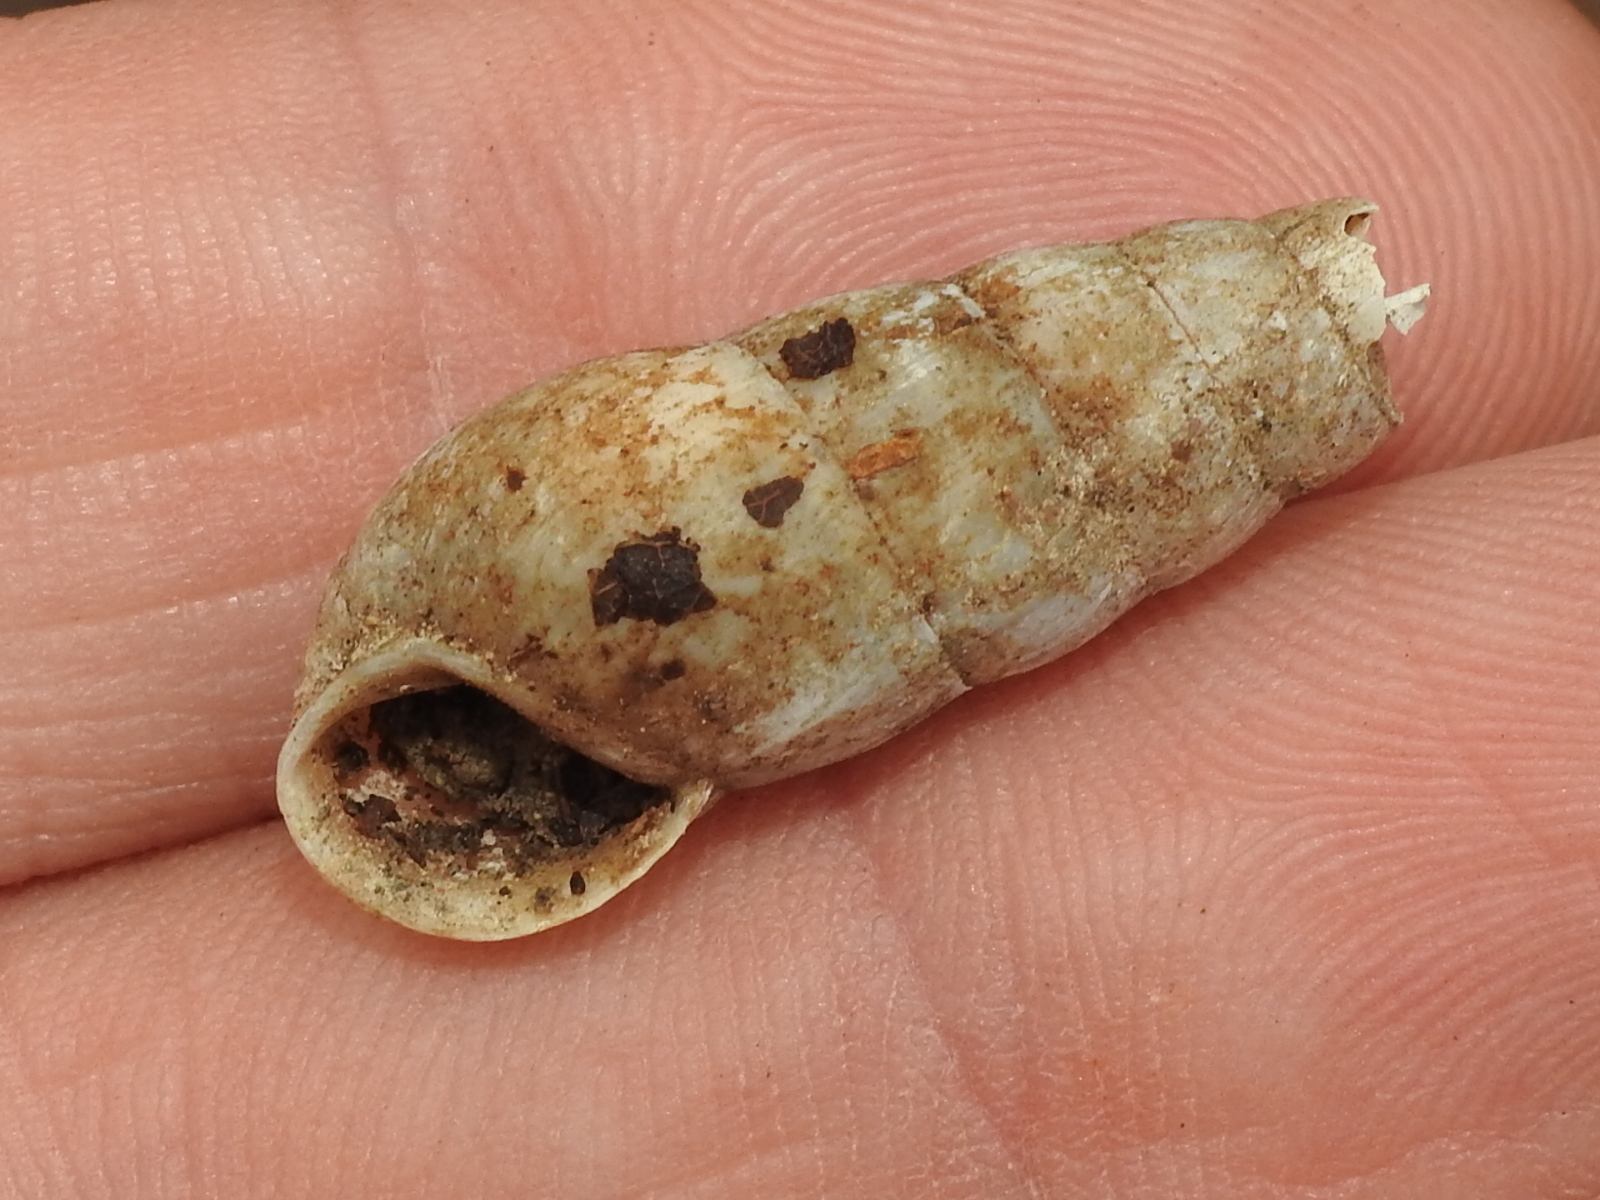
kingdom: Animalia
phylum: Mollusca
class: Gastropoda
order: Stylommatophora
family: Achatinidae
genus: Rumina
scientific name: Rumina decollata
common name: Decollate snail
